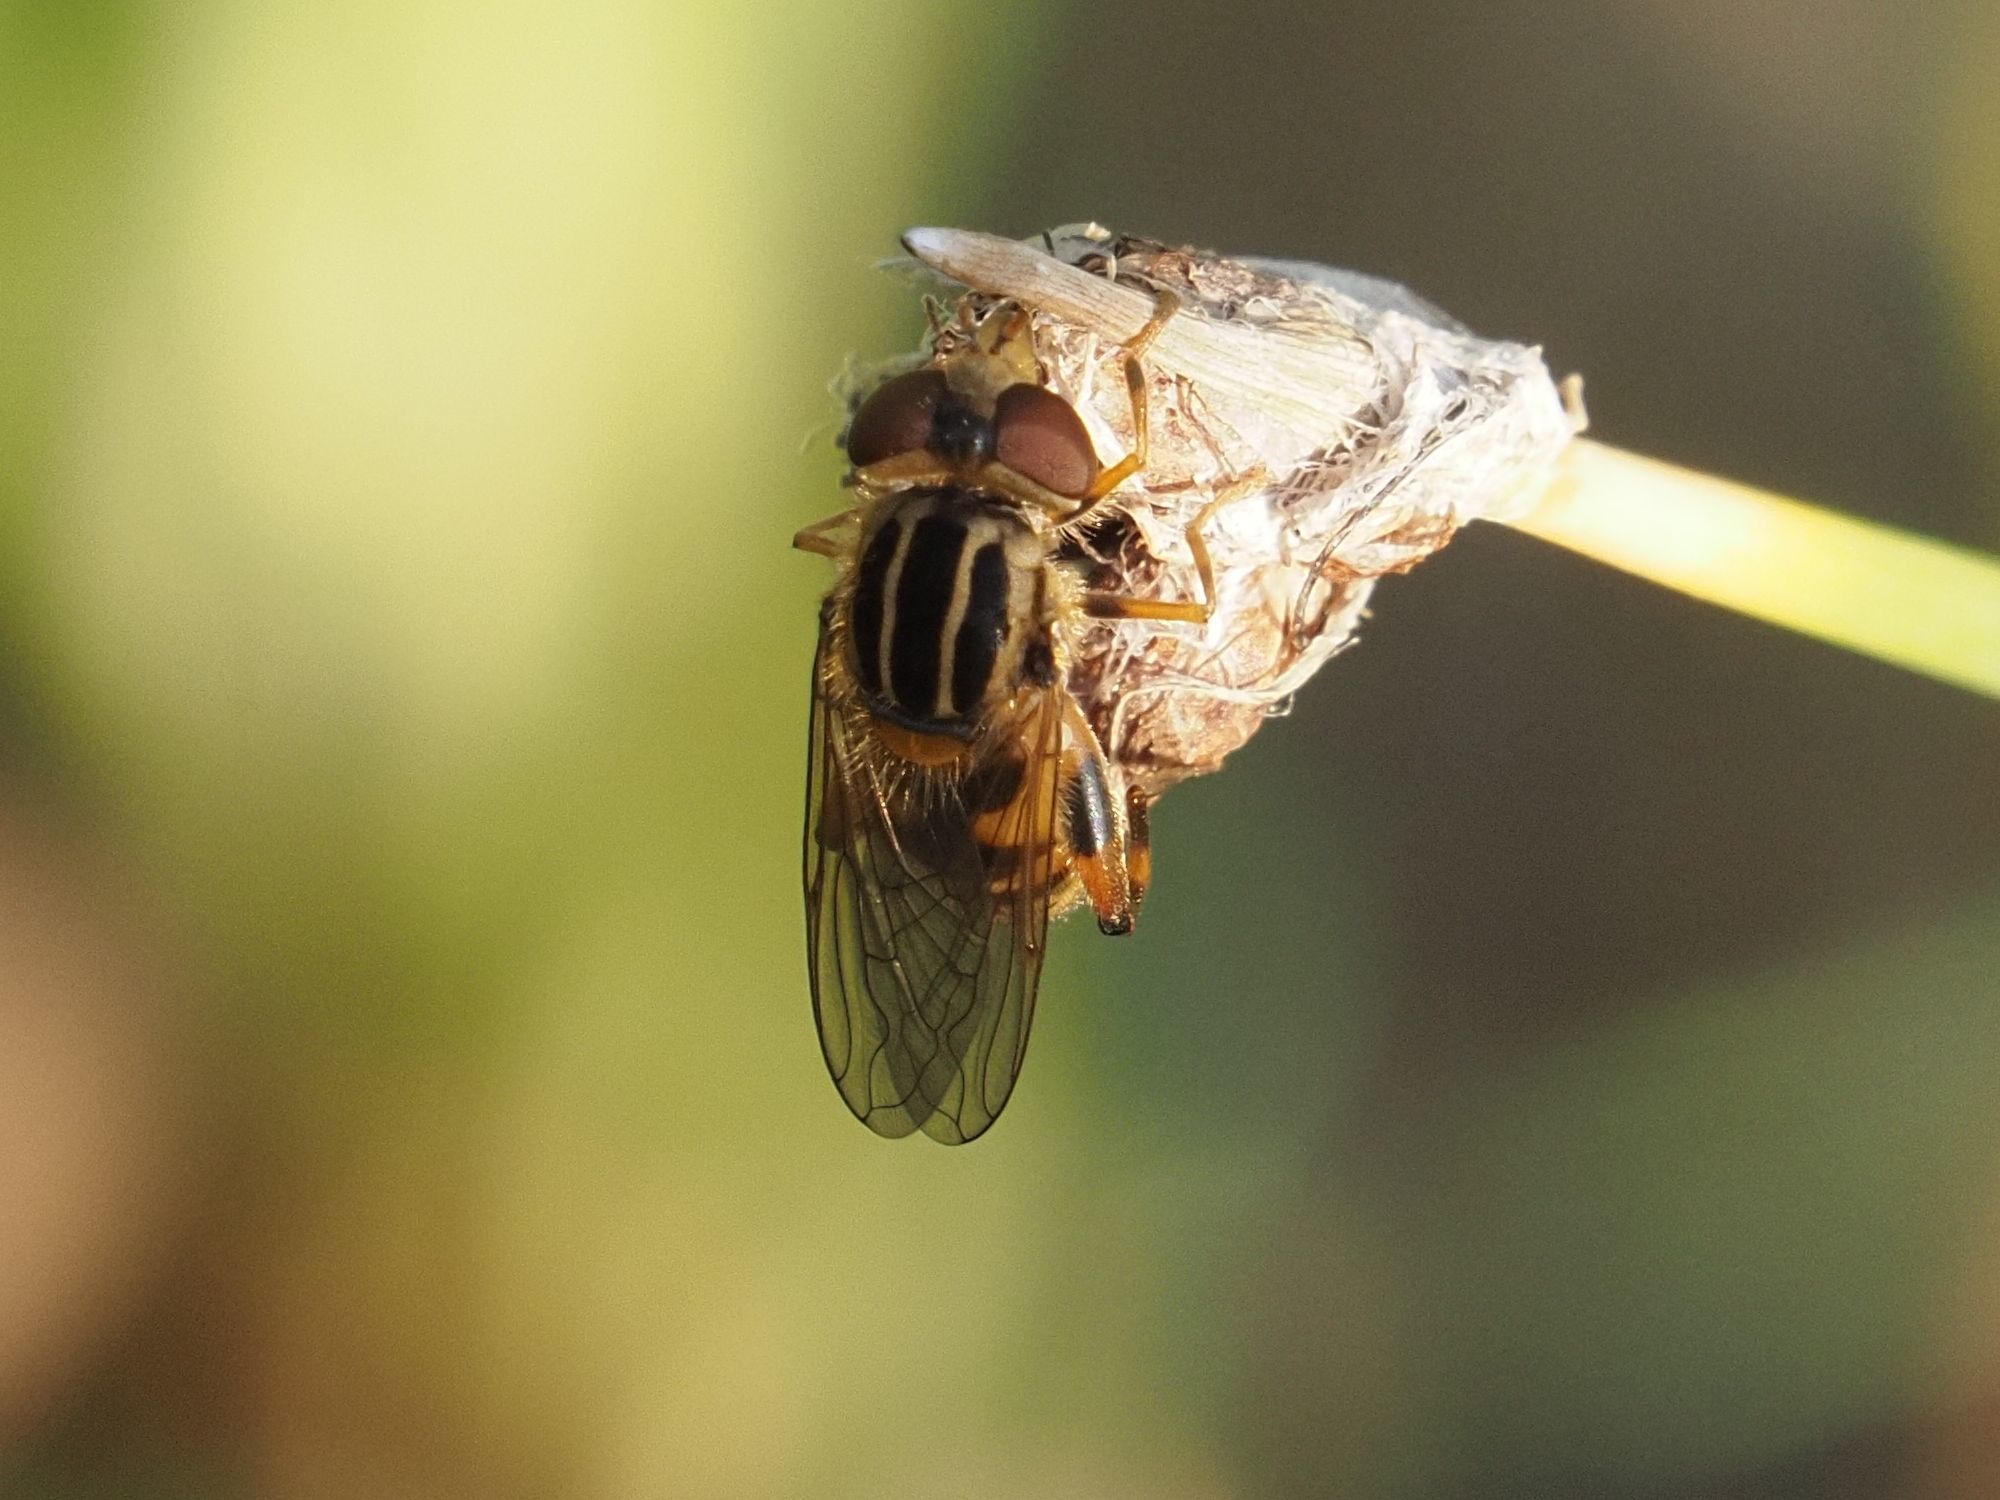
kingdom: Animalia
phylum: Arthropoda
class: Insecta
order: Diptera
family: Syrphidae
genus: Eurimyia
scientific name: Eurimyia lineatus
